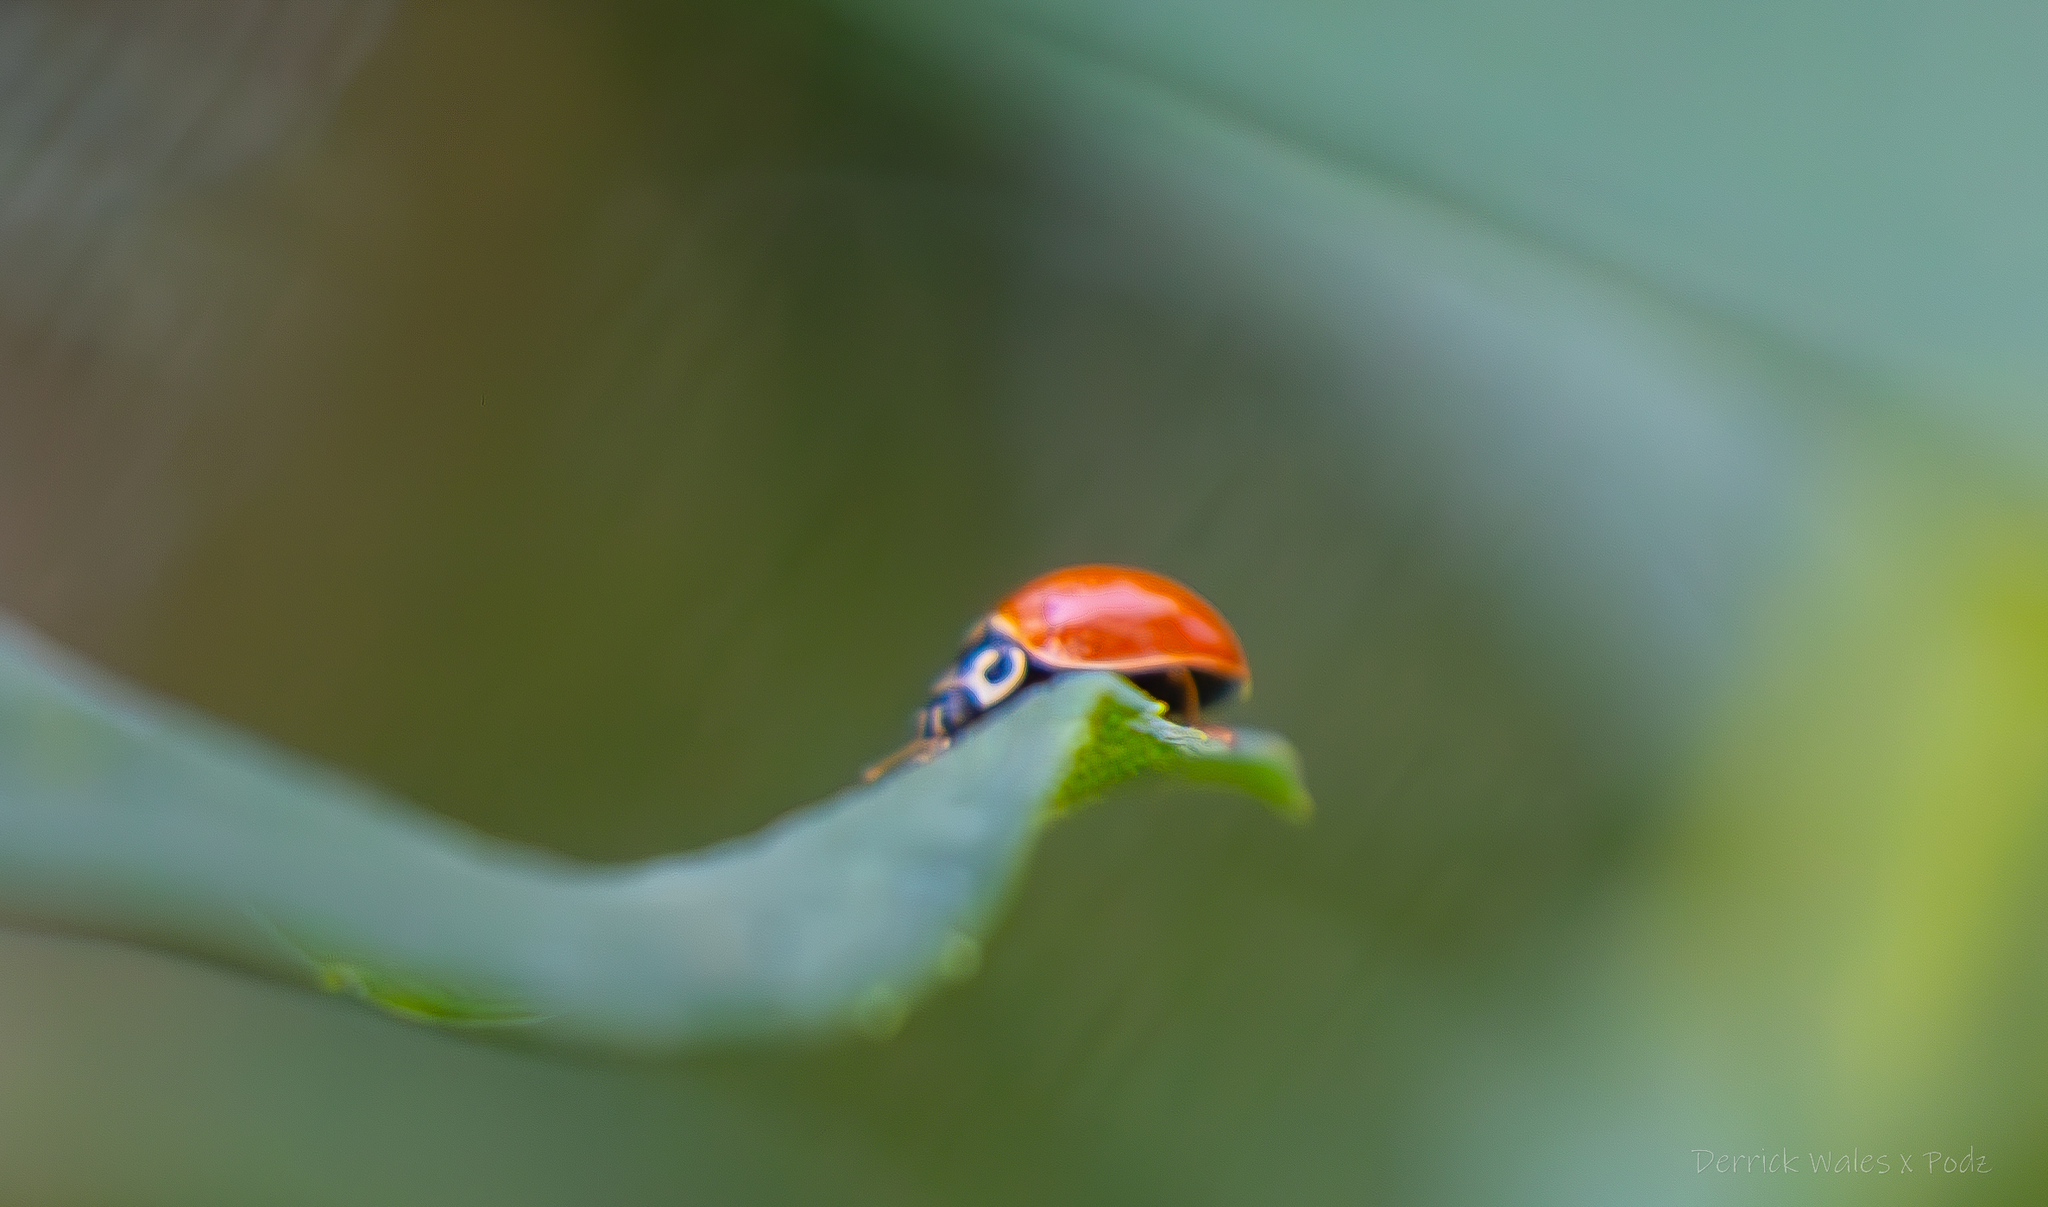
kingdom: Animalia
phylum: Arthropoda
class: Insecta
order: Coleoptera
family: Coccinellidae
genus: Cycloneda
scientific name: Cycloneda munda
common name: Polished lady beetle
